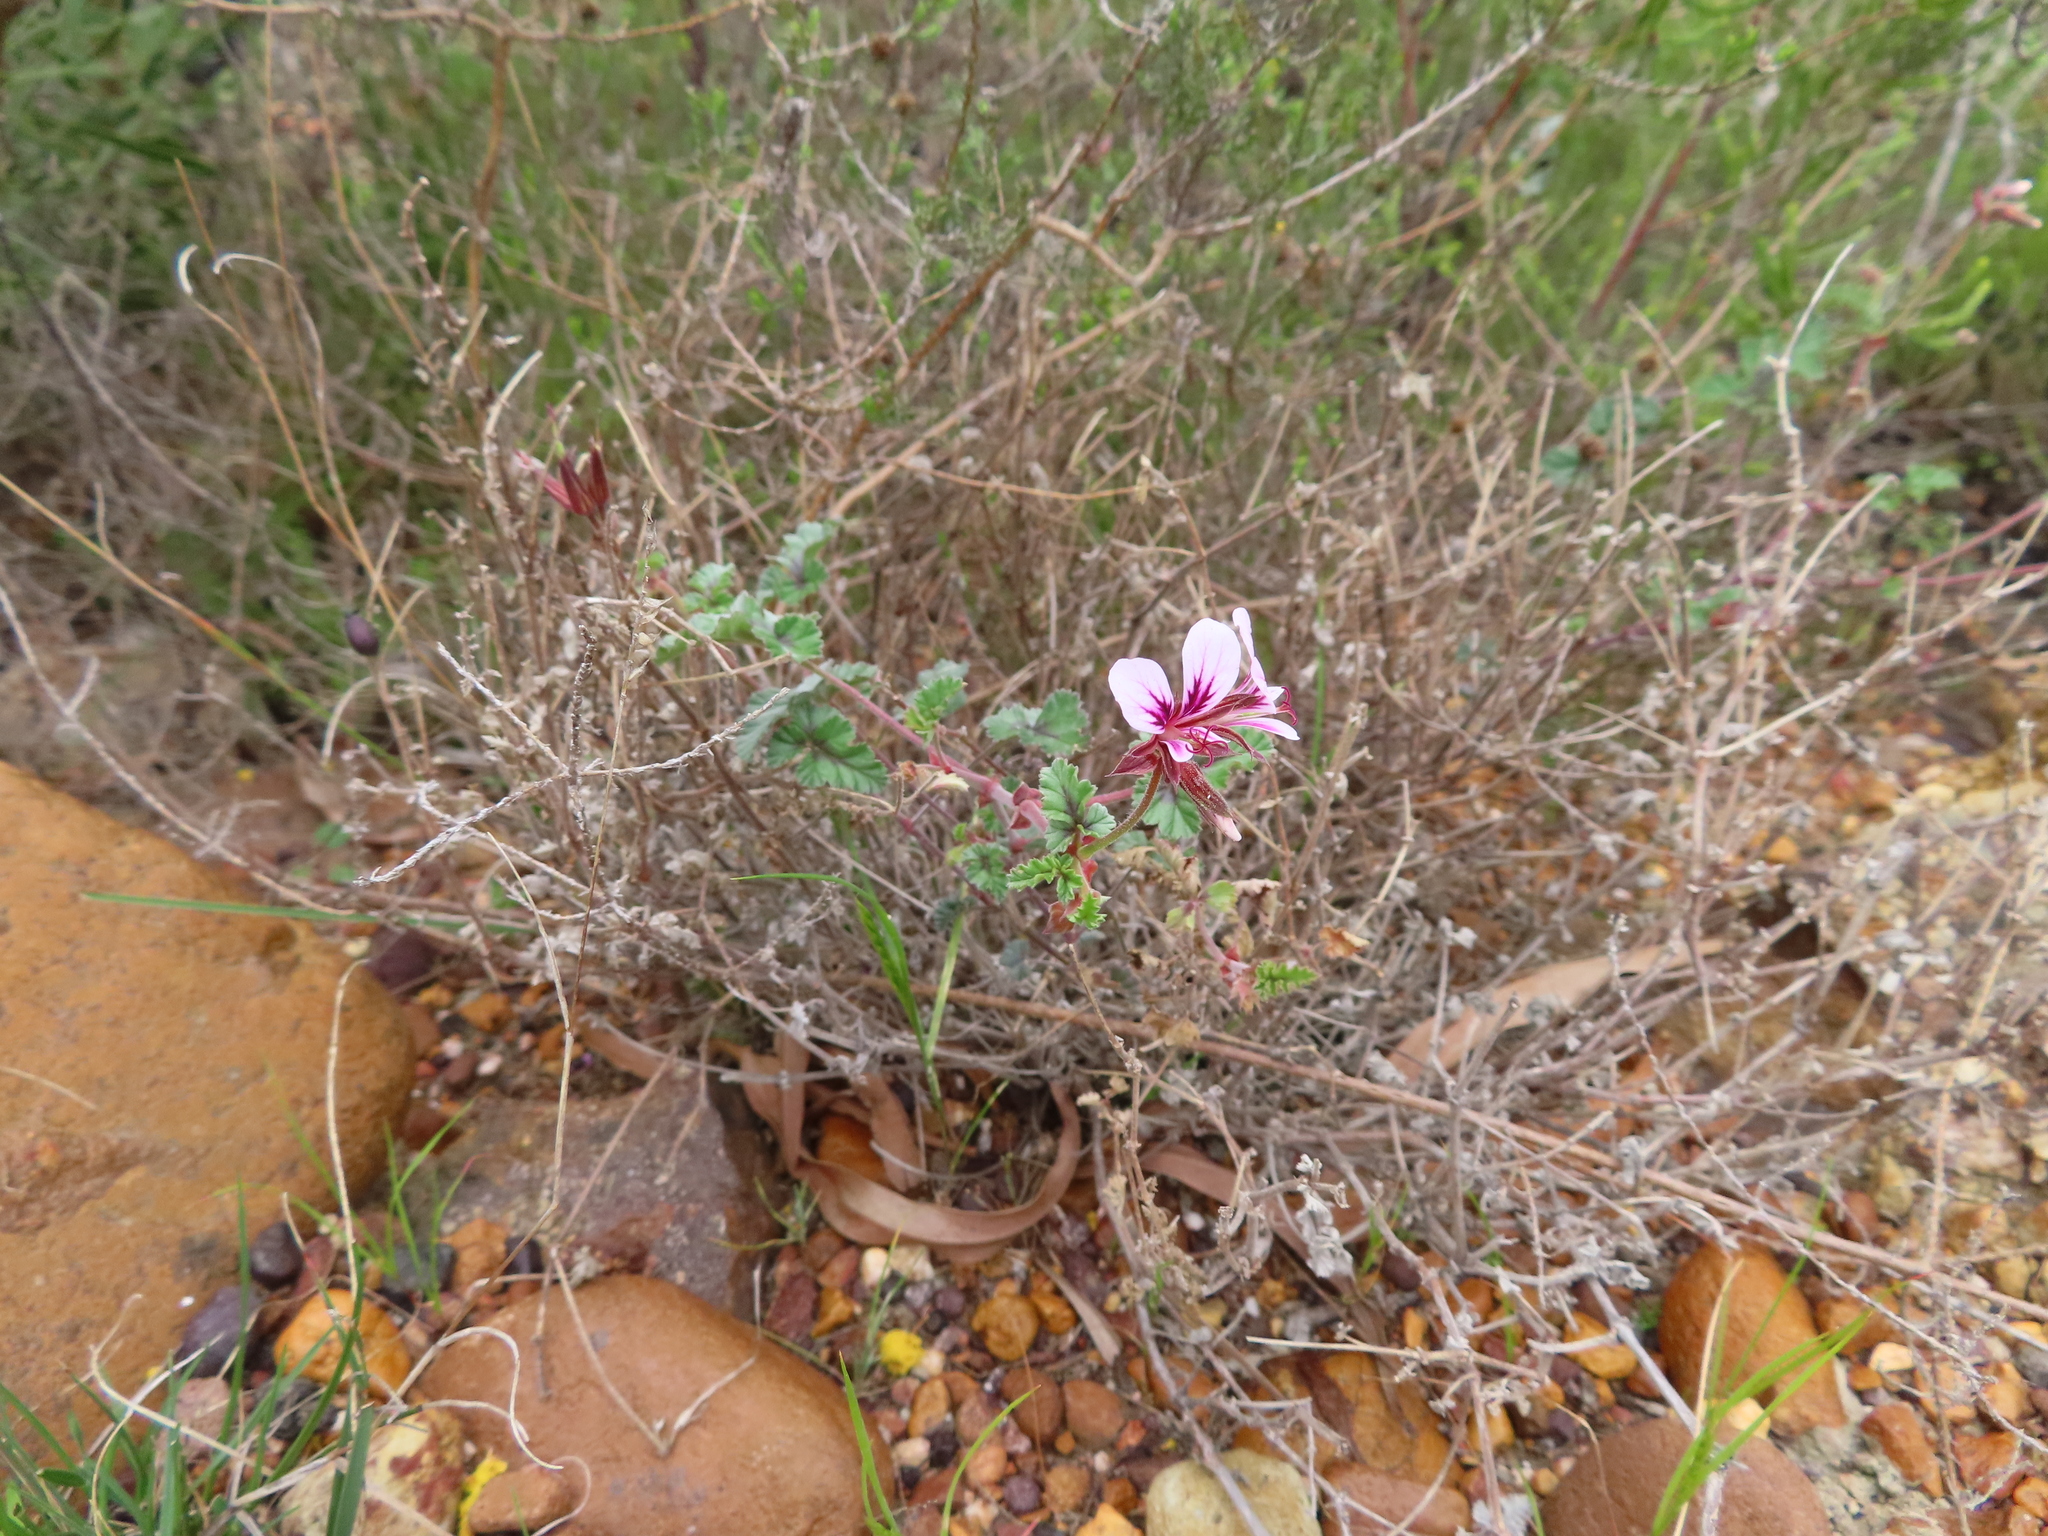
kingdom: Plantae
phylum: Tracheophyta
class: Magnoliopsida
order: Geraniales
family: Geraniaceae
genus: Pelargonium
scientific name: Pelargonium candicans
